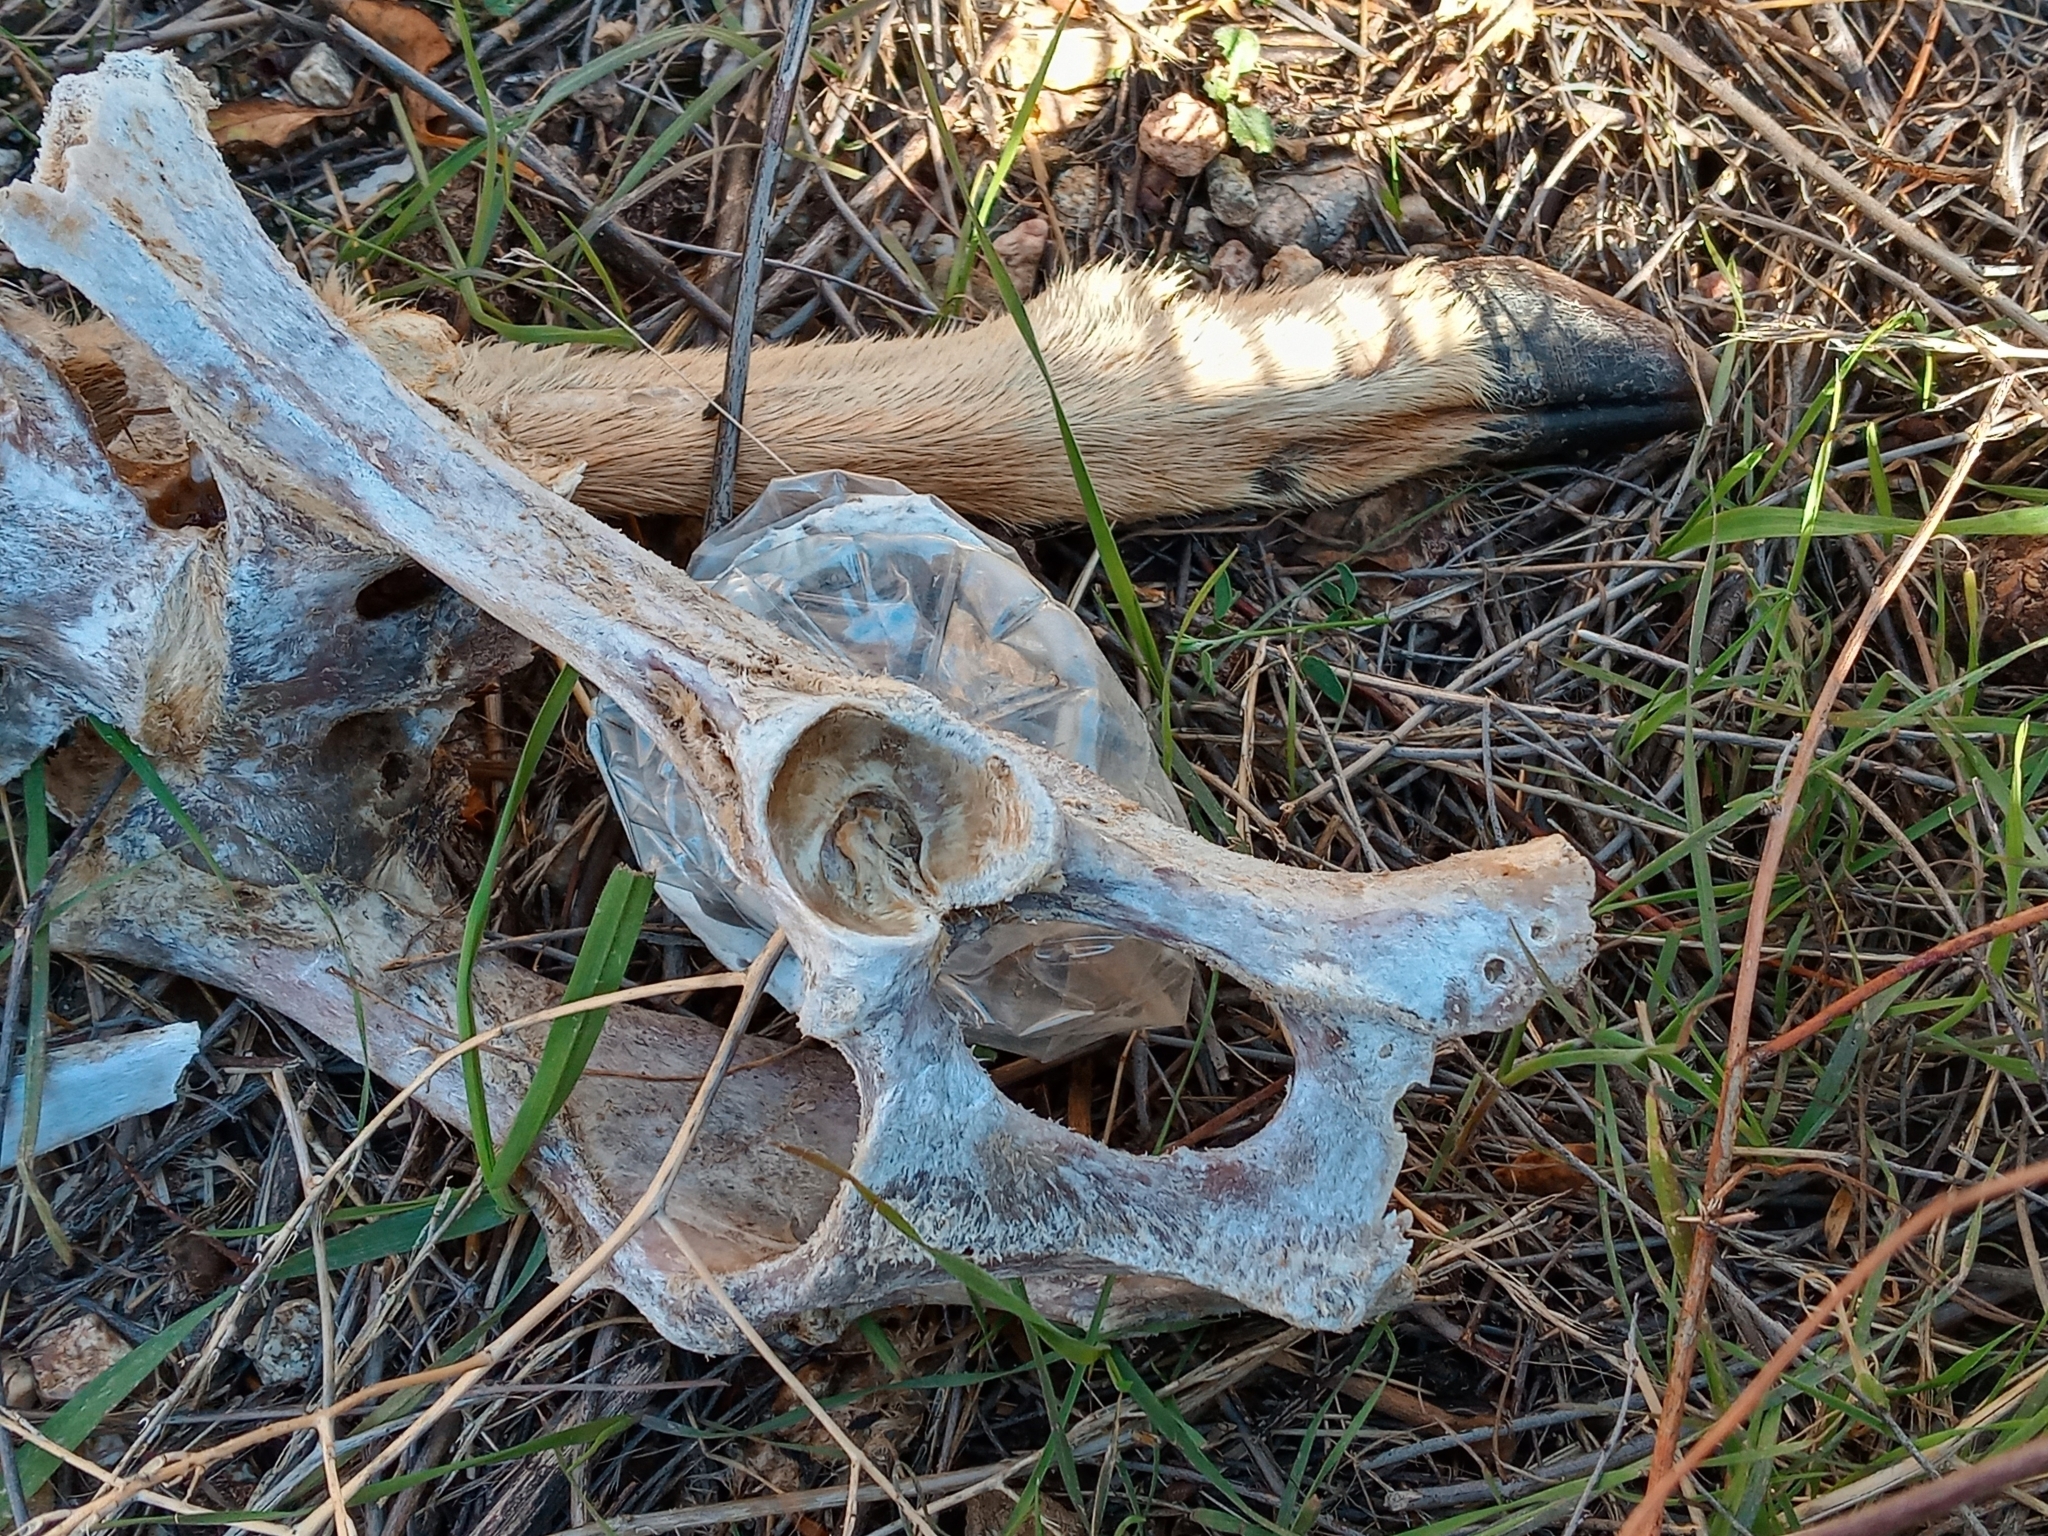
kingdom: Animalia
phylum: Chordata
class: Mammalia
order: Artiodactyla
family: Cervidae
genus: Odocoileus
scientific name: Odocoileus hemionus
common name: Mule deer
